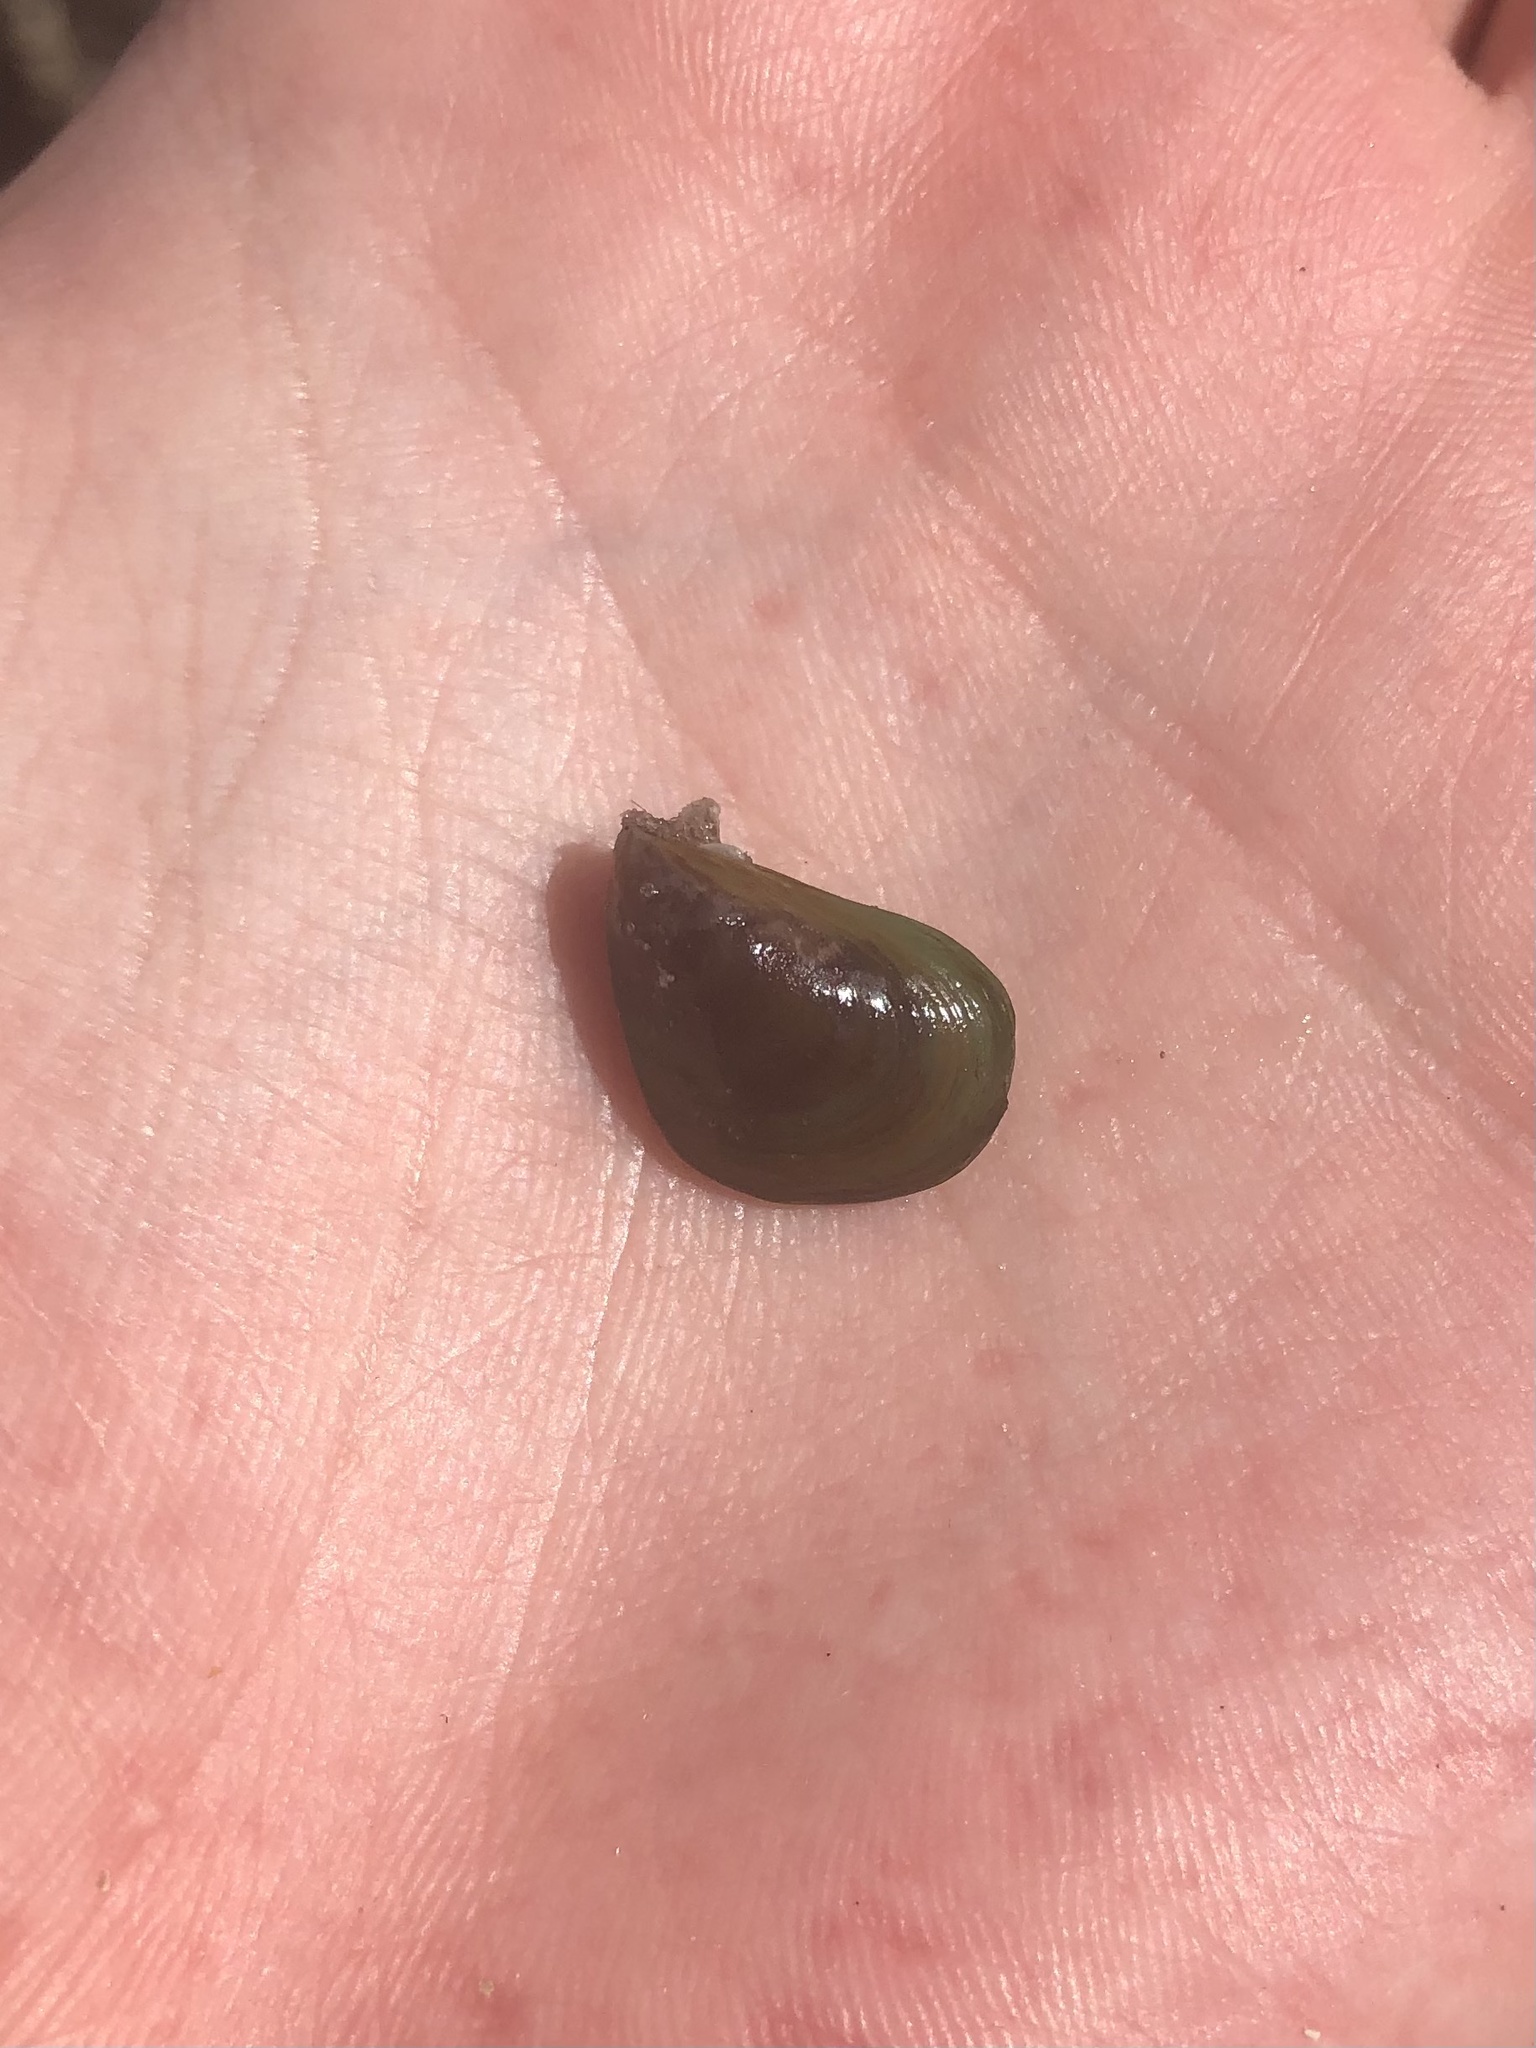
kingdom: Animalia
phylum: Mollusca
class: Bivalvia
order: Mytilida
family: Mytilidae
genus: Perna
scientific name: Perna viridis
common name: Green mussel
